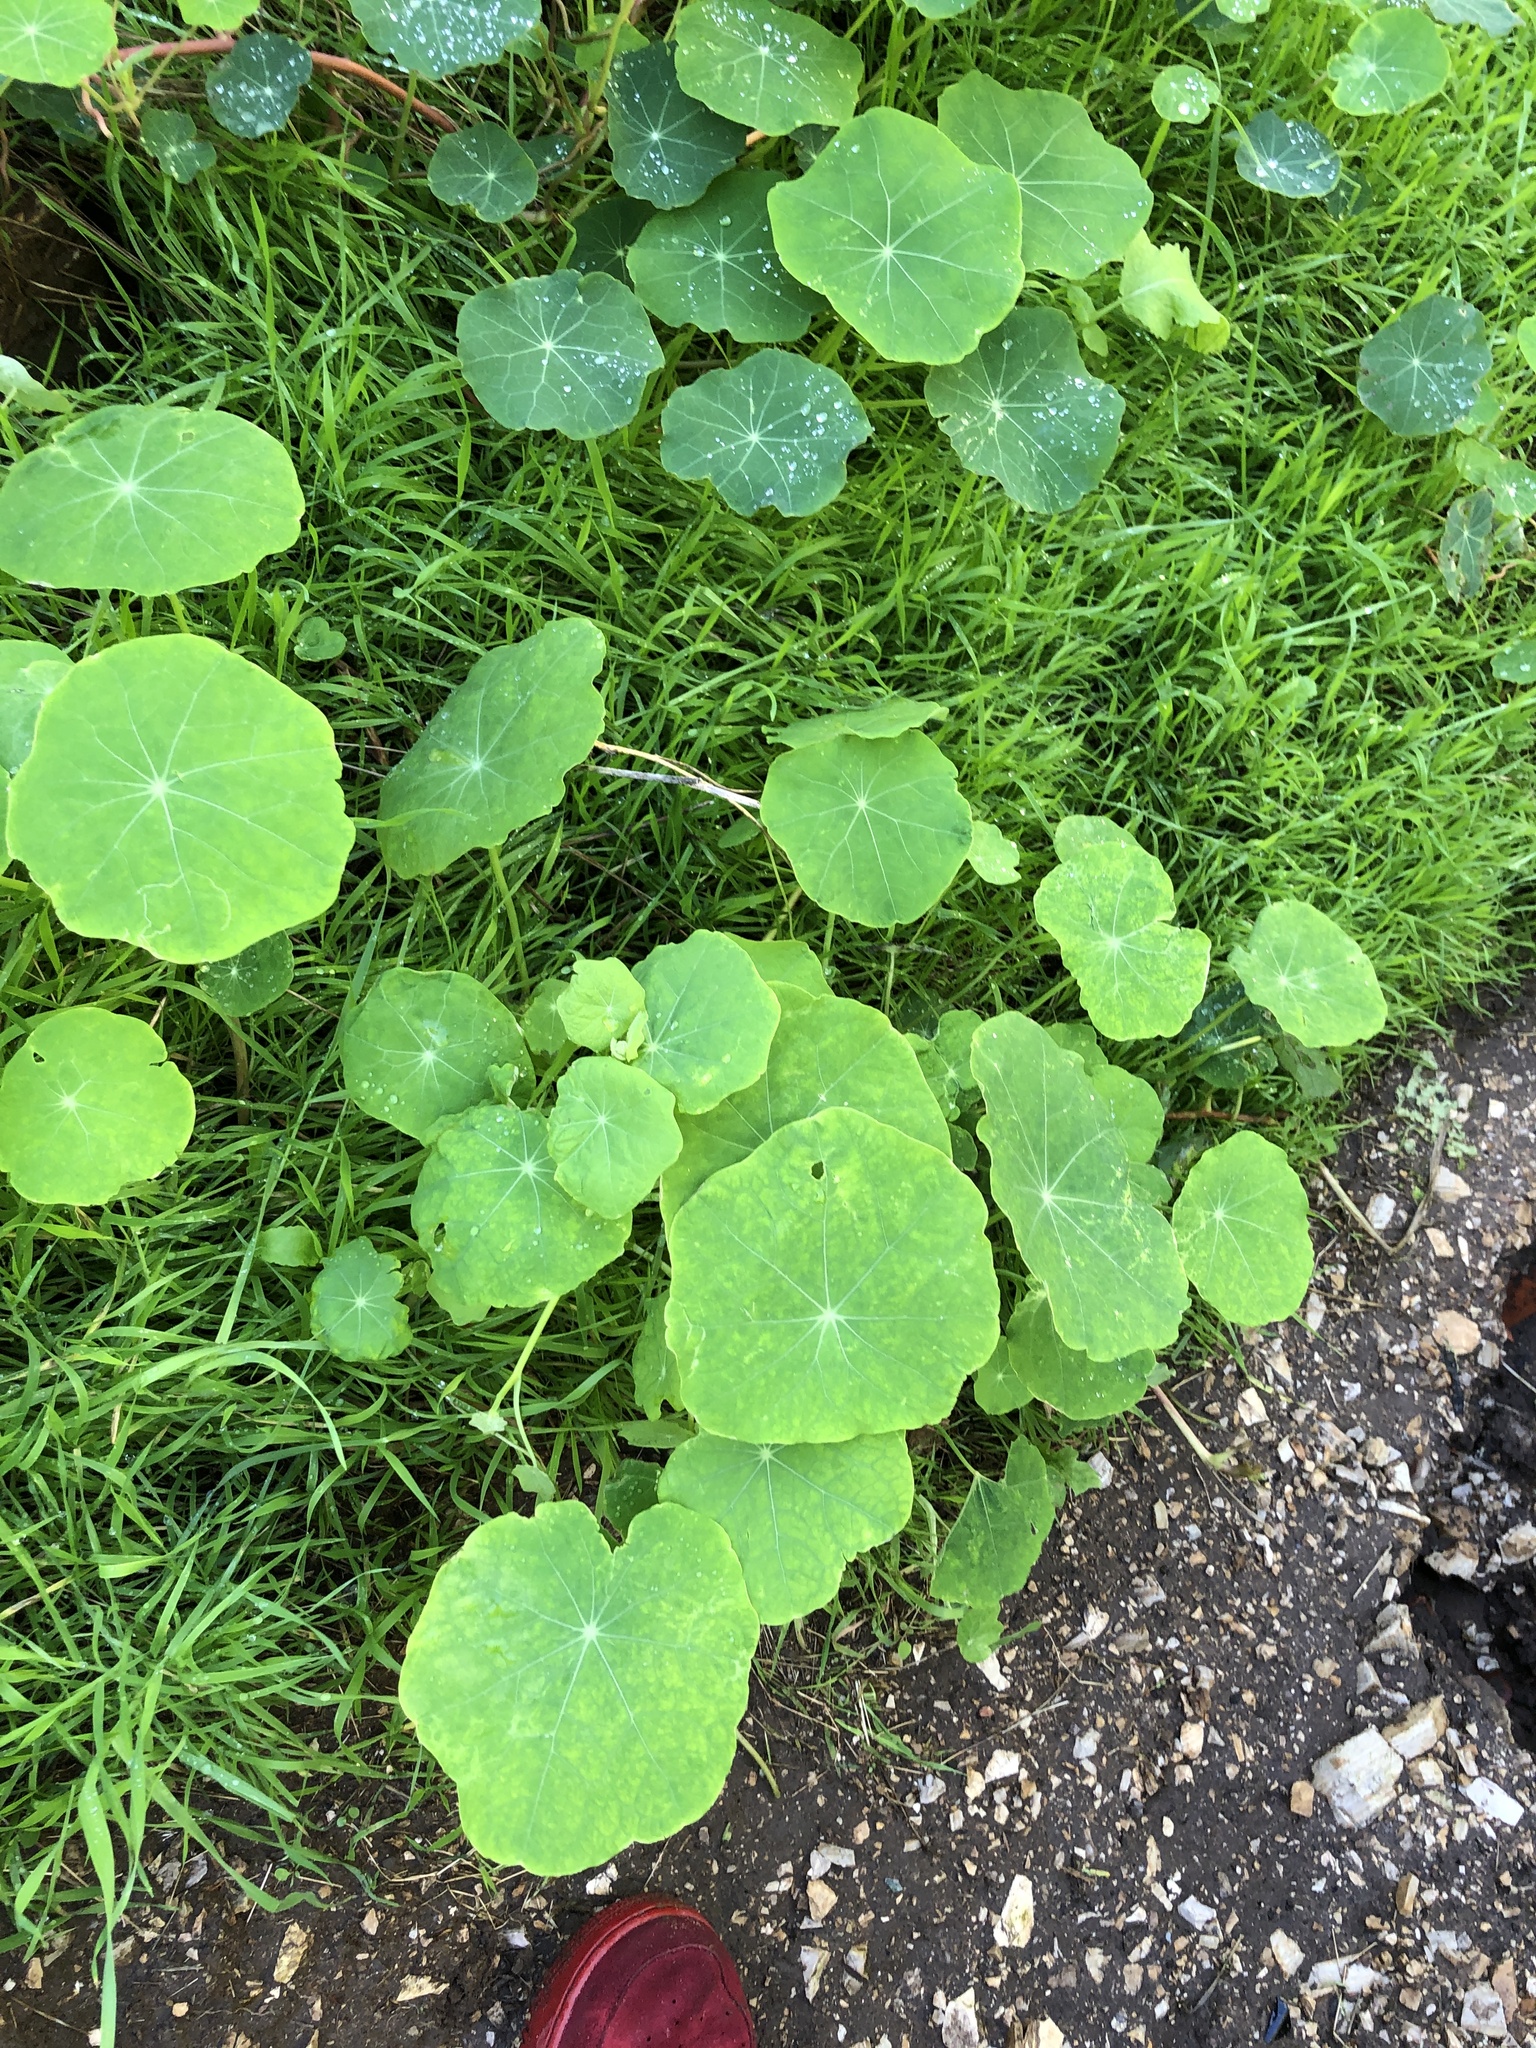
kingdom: Plantae
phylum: Tracheophyta
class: Magnoliopsida
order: Brassicales
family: Tropaeolaceae
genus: Tropaeolum
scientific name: Tropaeolum majus
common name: Nasturtium
